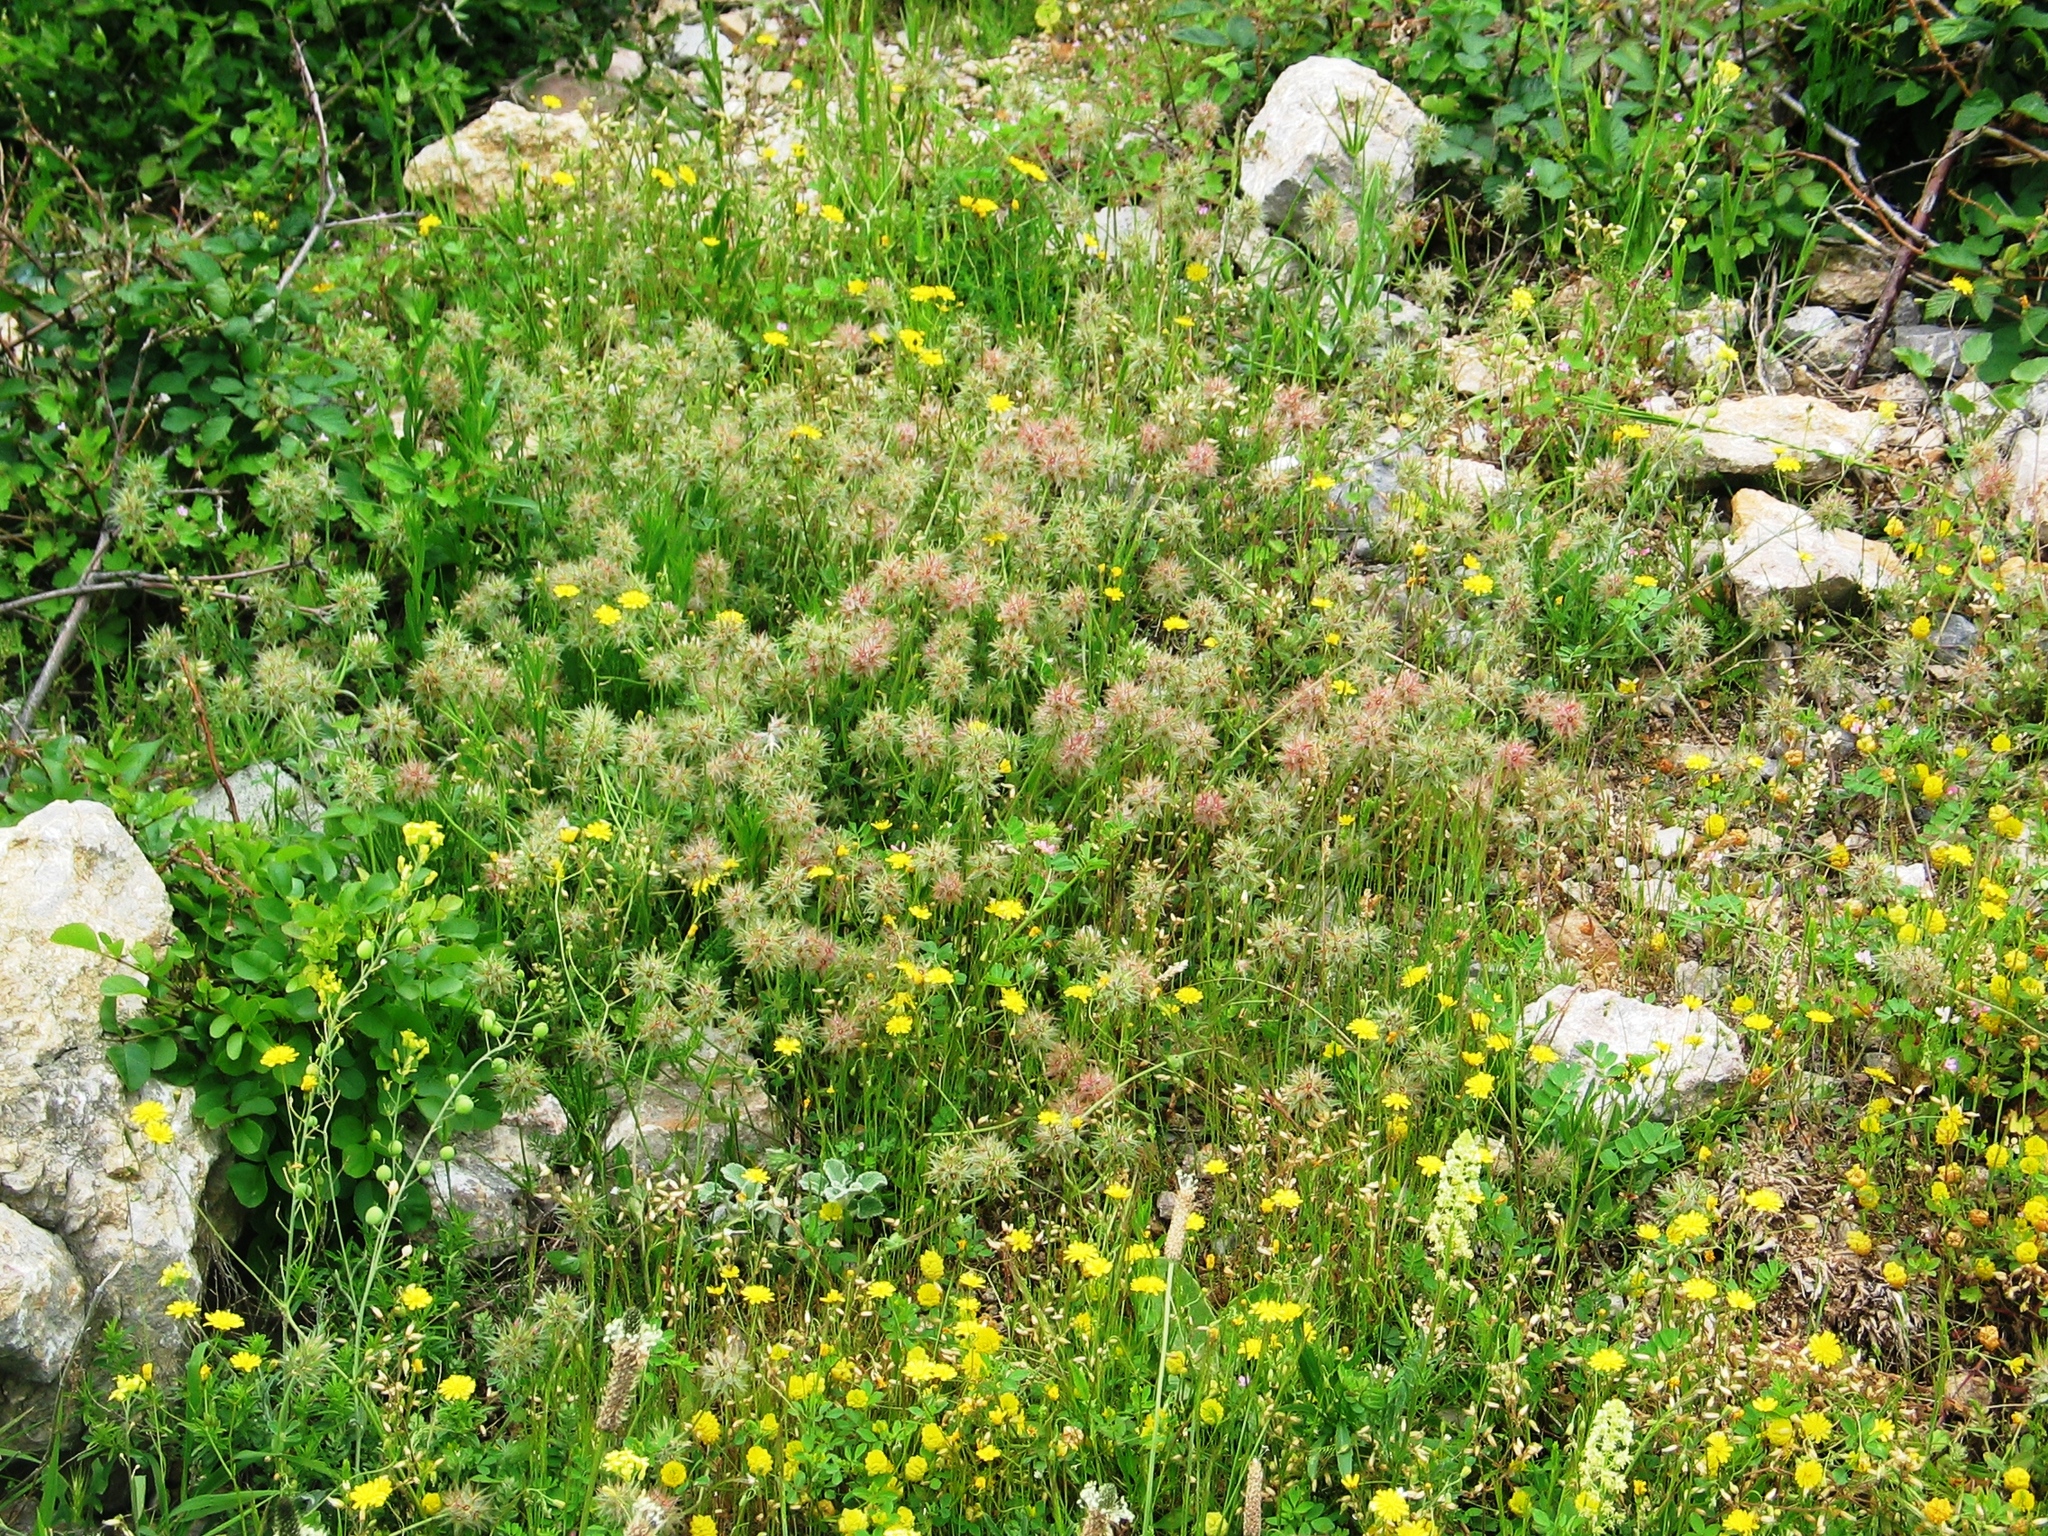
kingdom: Plantae
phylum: Tracheophyta
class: Magnoliopsida
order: Fabales
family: Fabaceae
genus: Trifolium
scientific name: Trifolium stellatum
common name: Starry clover
